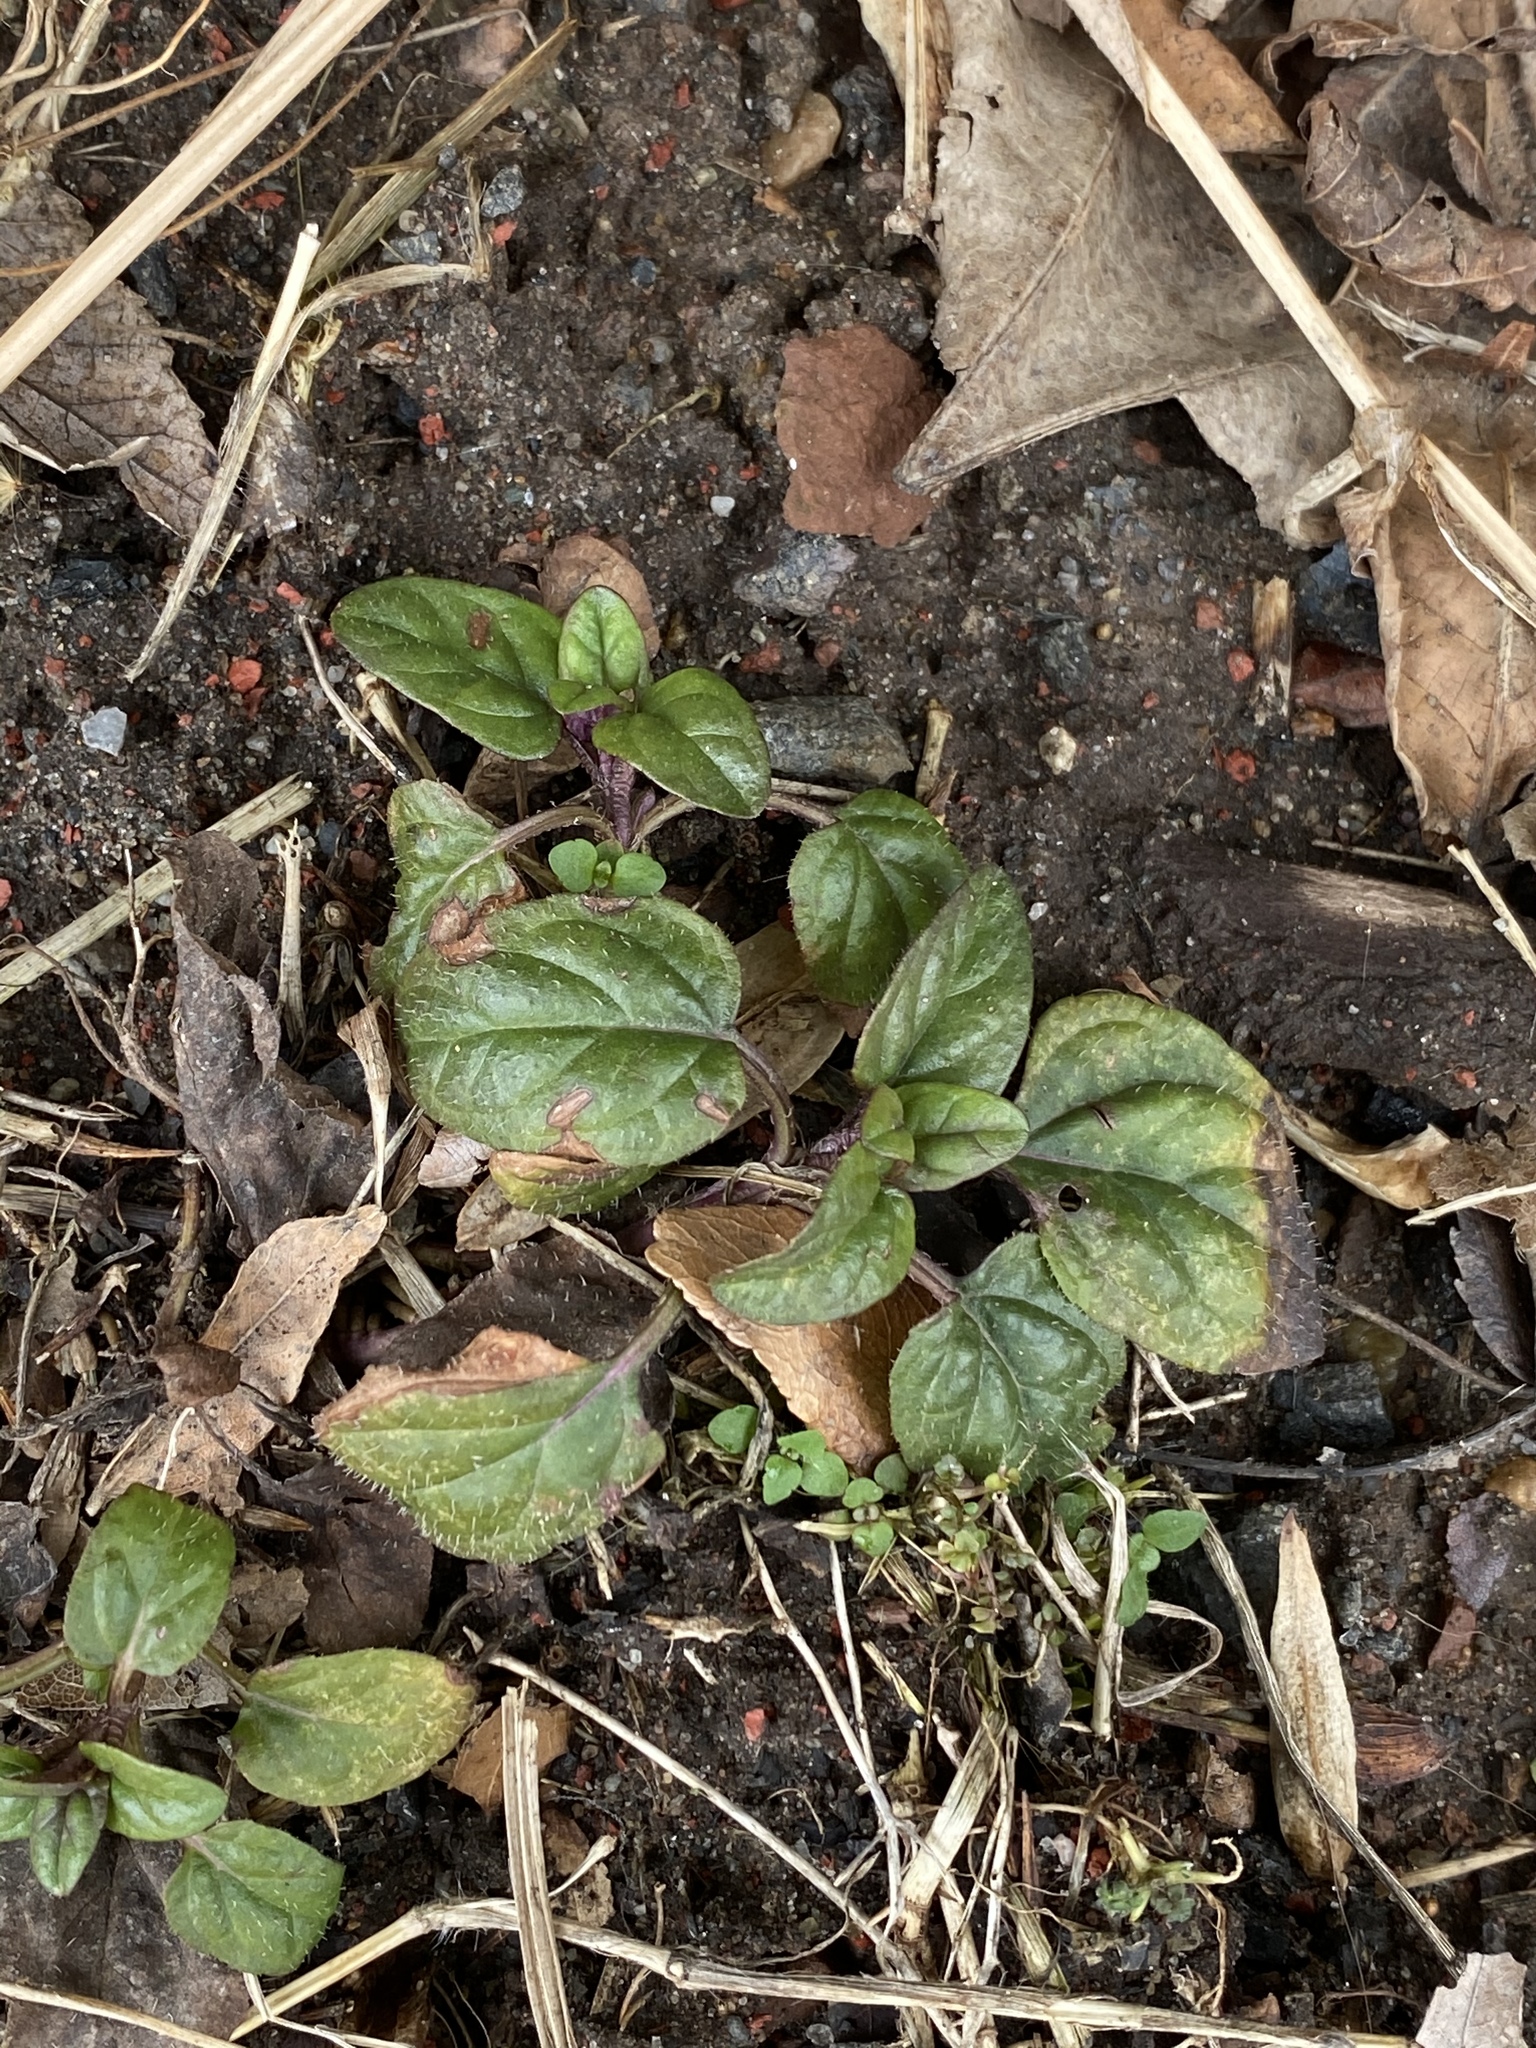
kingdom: Plantae
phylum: Tracheophyta
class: Magnoliopsida
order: Lamiales
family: Lamiaceae
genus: Prunella
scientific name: Prunella vulgaris
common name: Heal-all
